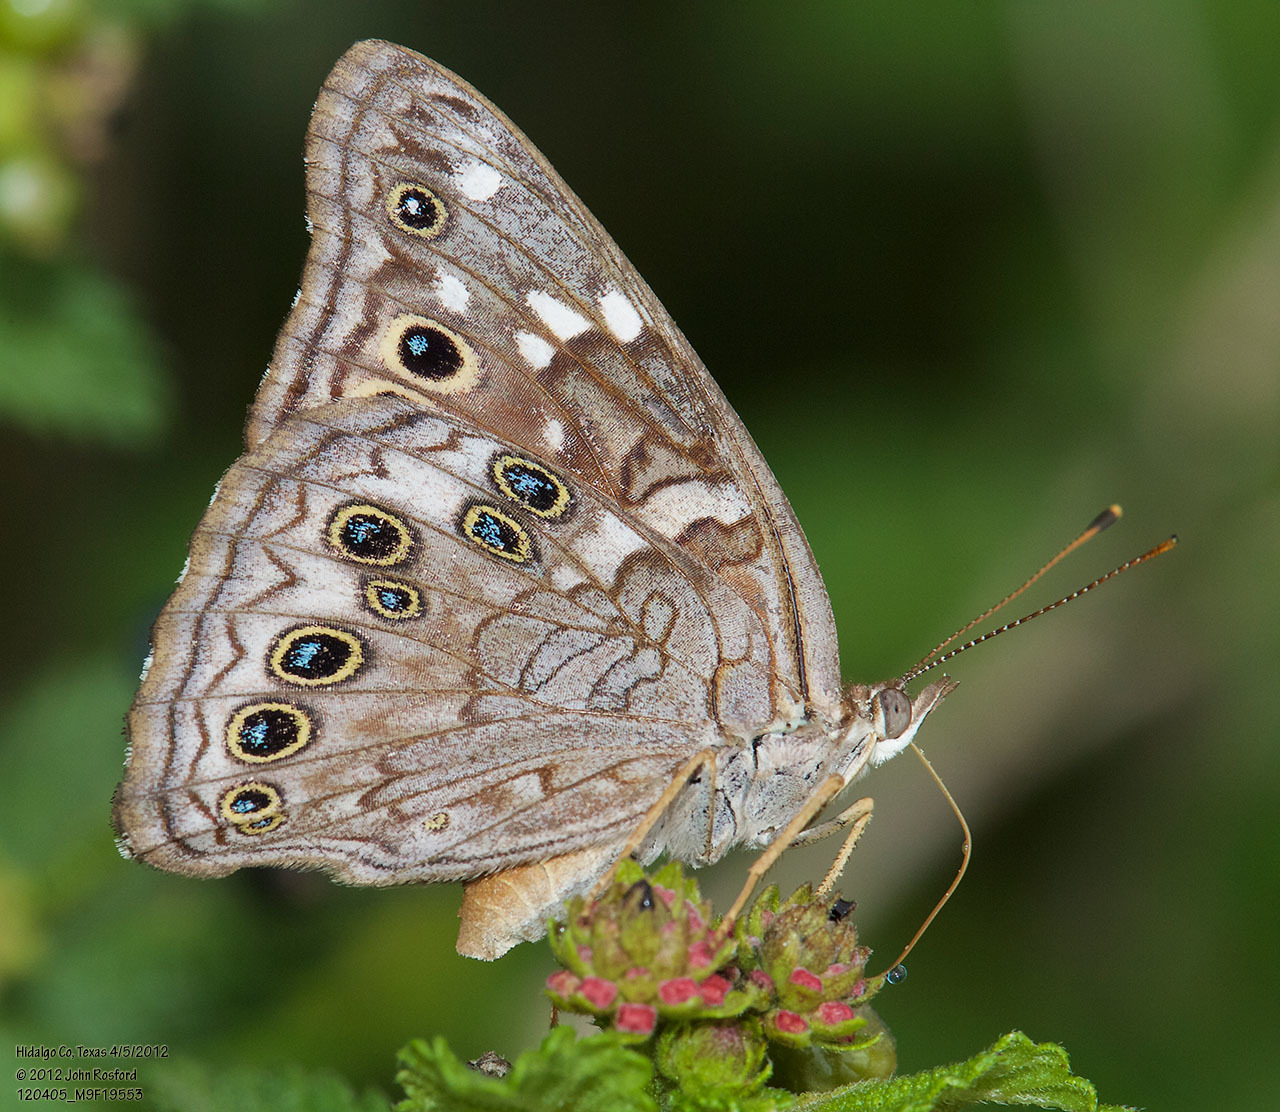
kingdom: Animalia
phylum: Arthropoda
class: Insecta
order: Lepidoptera
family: Nymphalidae
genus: Asterocampa
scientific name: Asterocampa leilia
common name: Empress leilia
